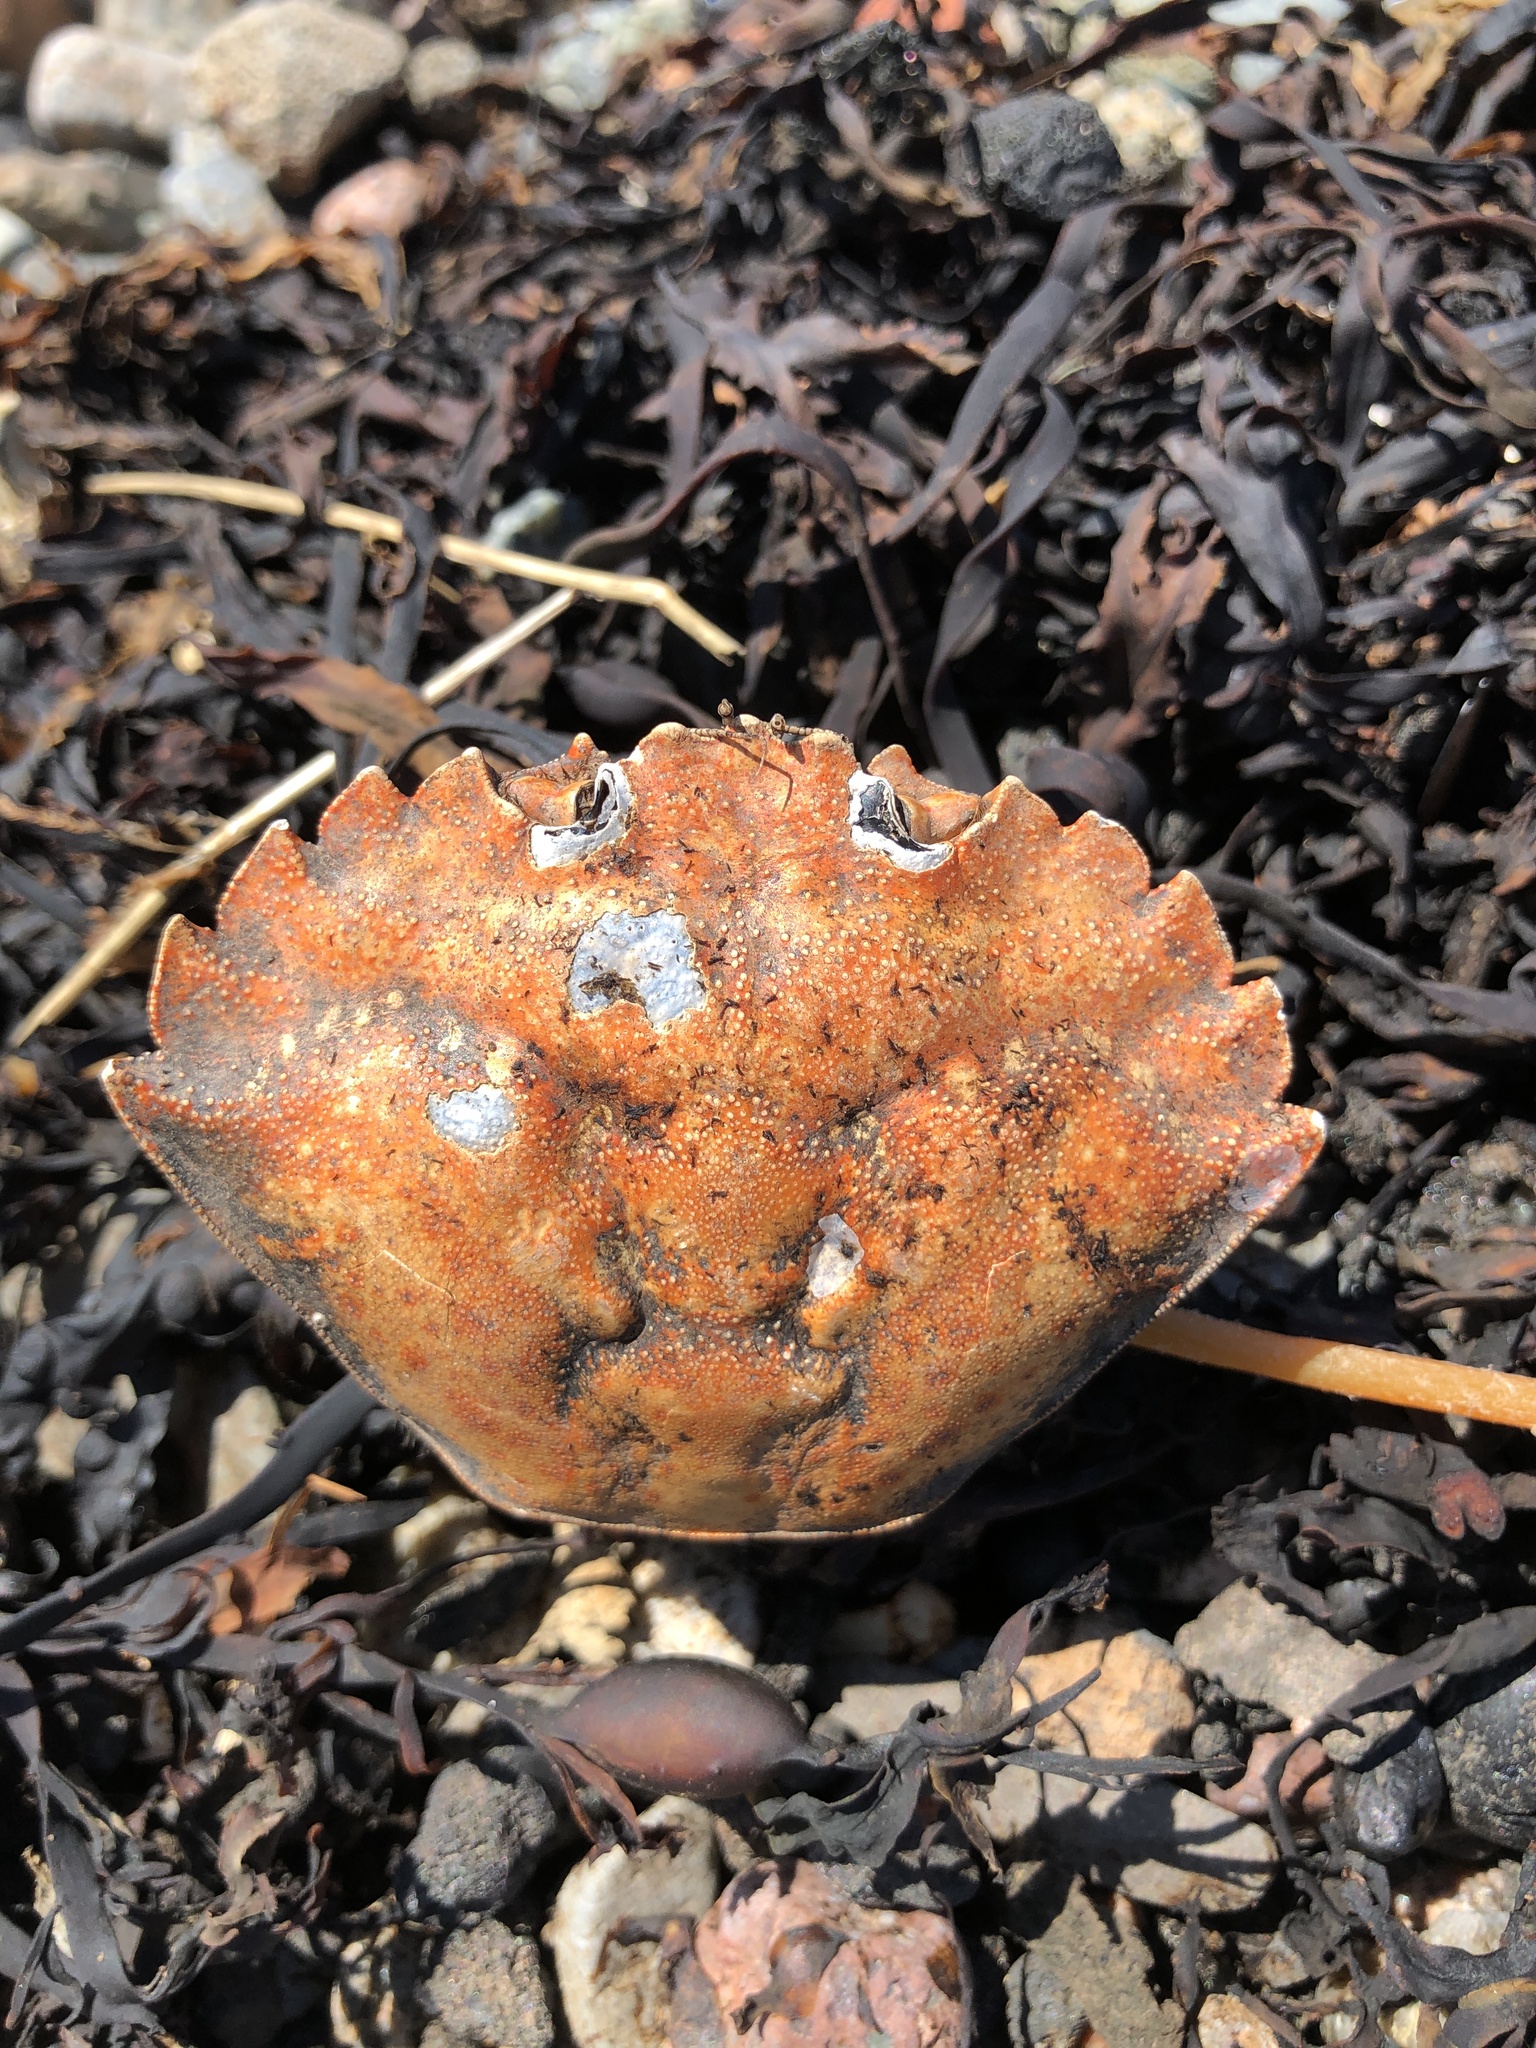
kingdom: Animalia
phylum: Arthropoda
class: Malacostraca
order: Decapoda
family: Carcinidae
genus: Carcinus
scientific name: Carcinus maenas
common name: European green crab
